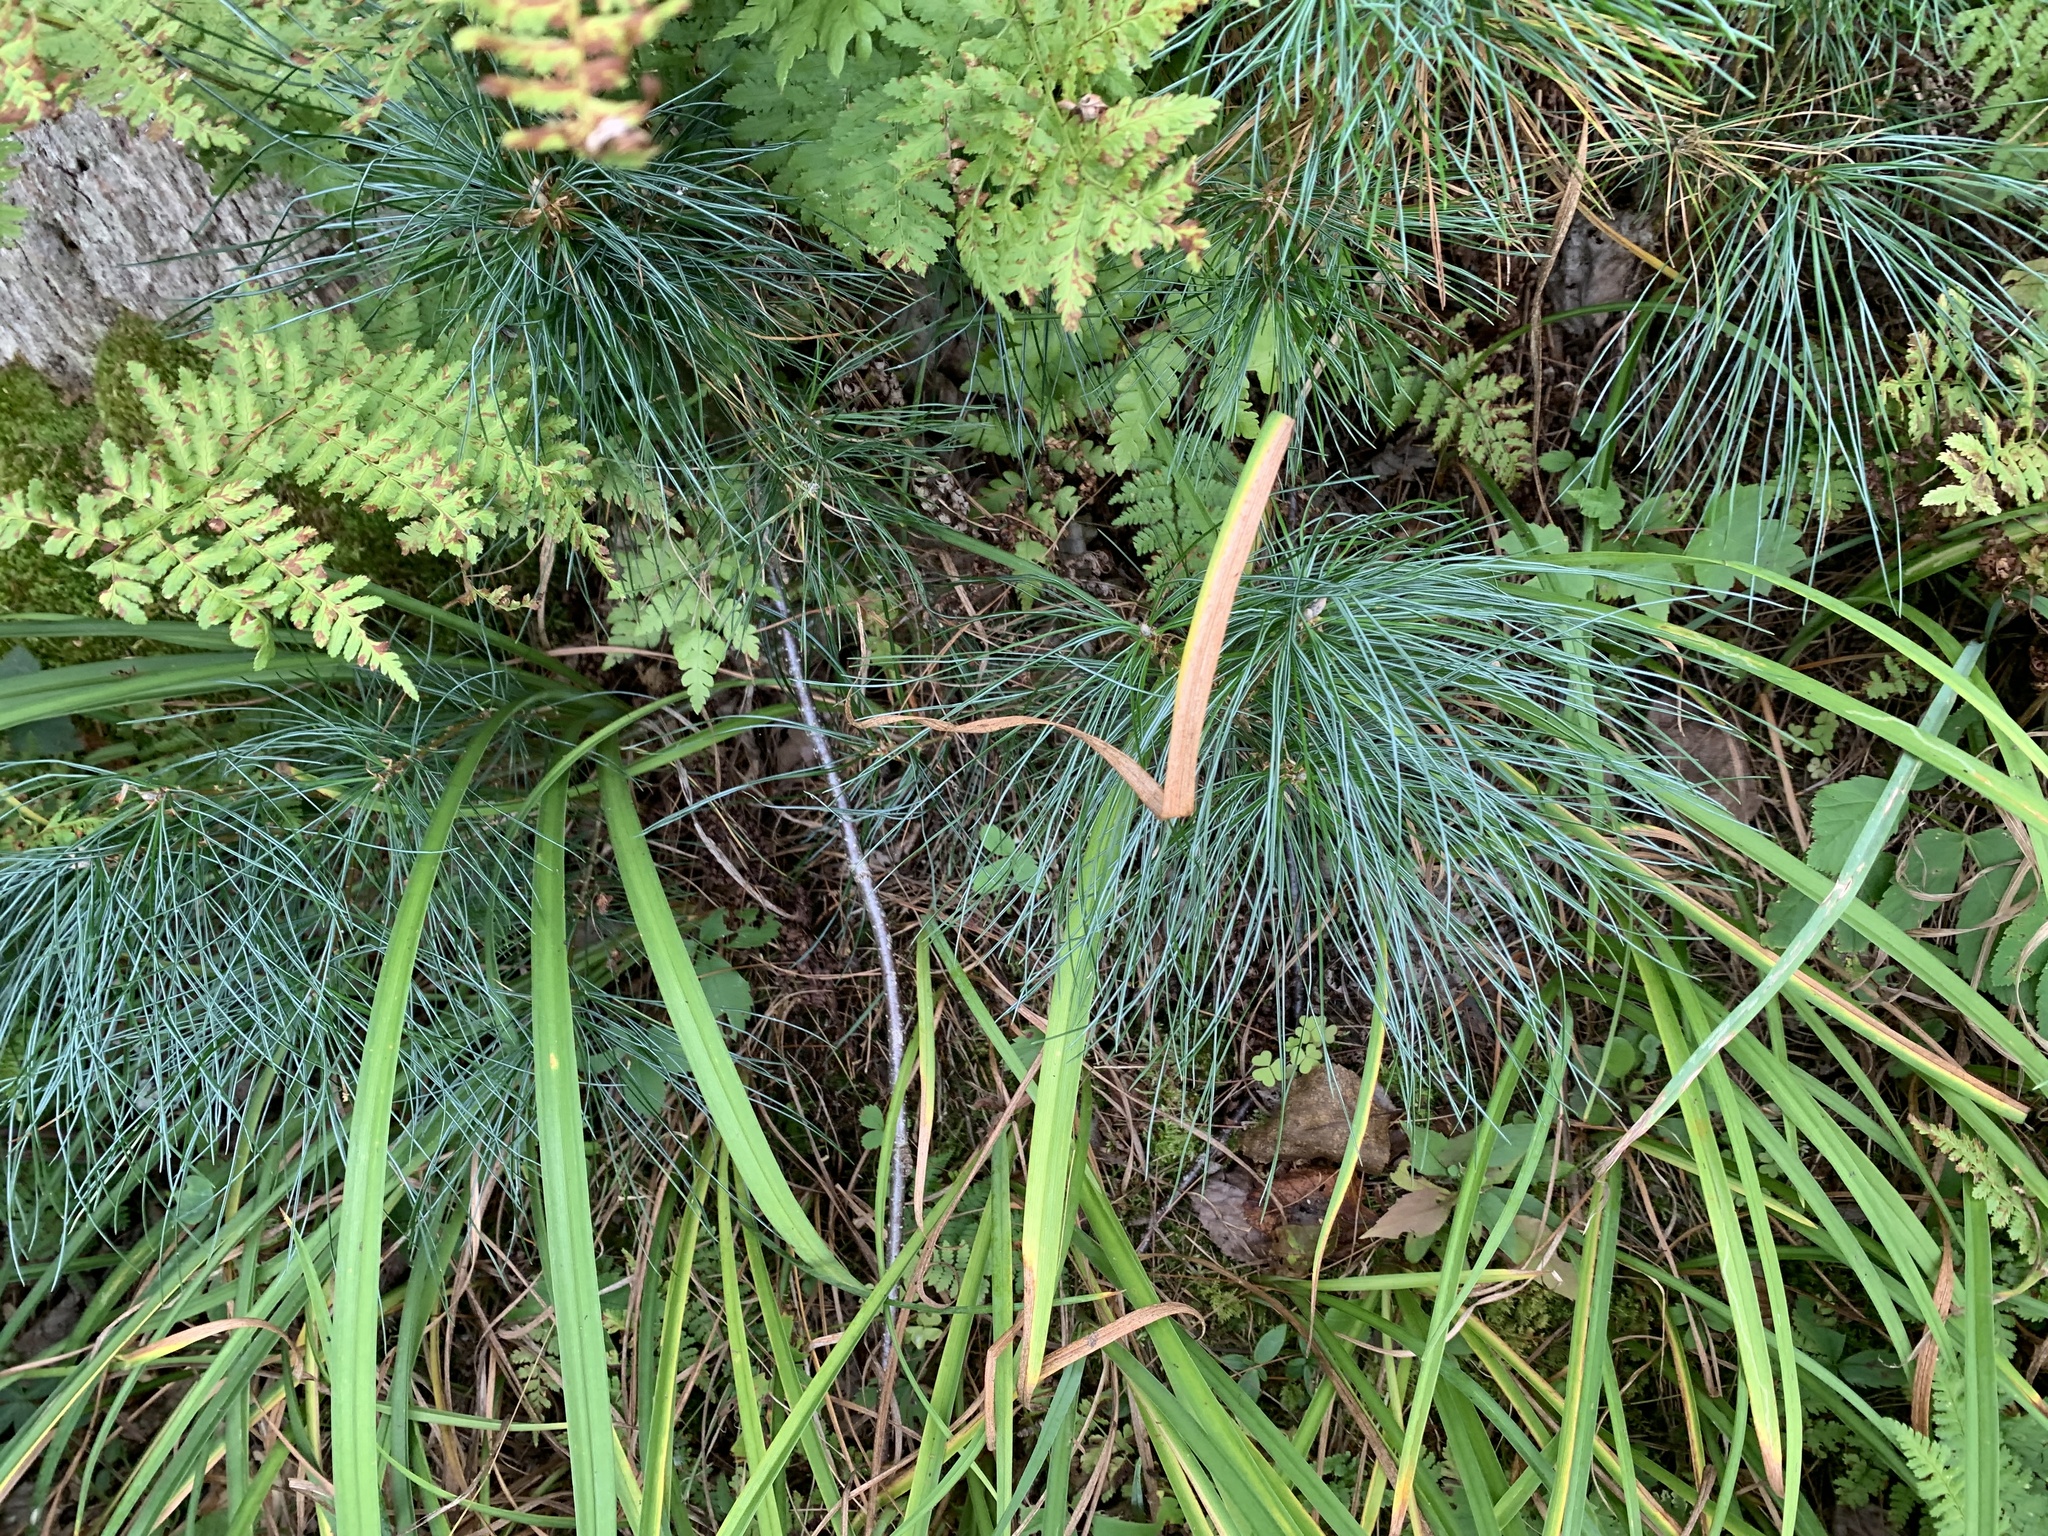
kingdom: Plantae
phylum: Tracheophyta
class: Pinopsida
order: Pinales
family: Pinaceae
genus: Pinus
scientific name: Pinus strobus
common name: Weymouth pine
